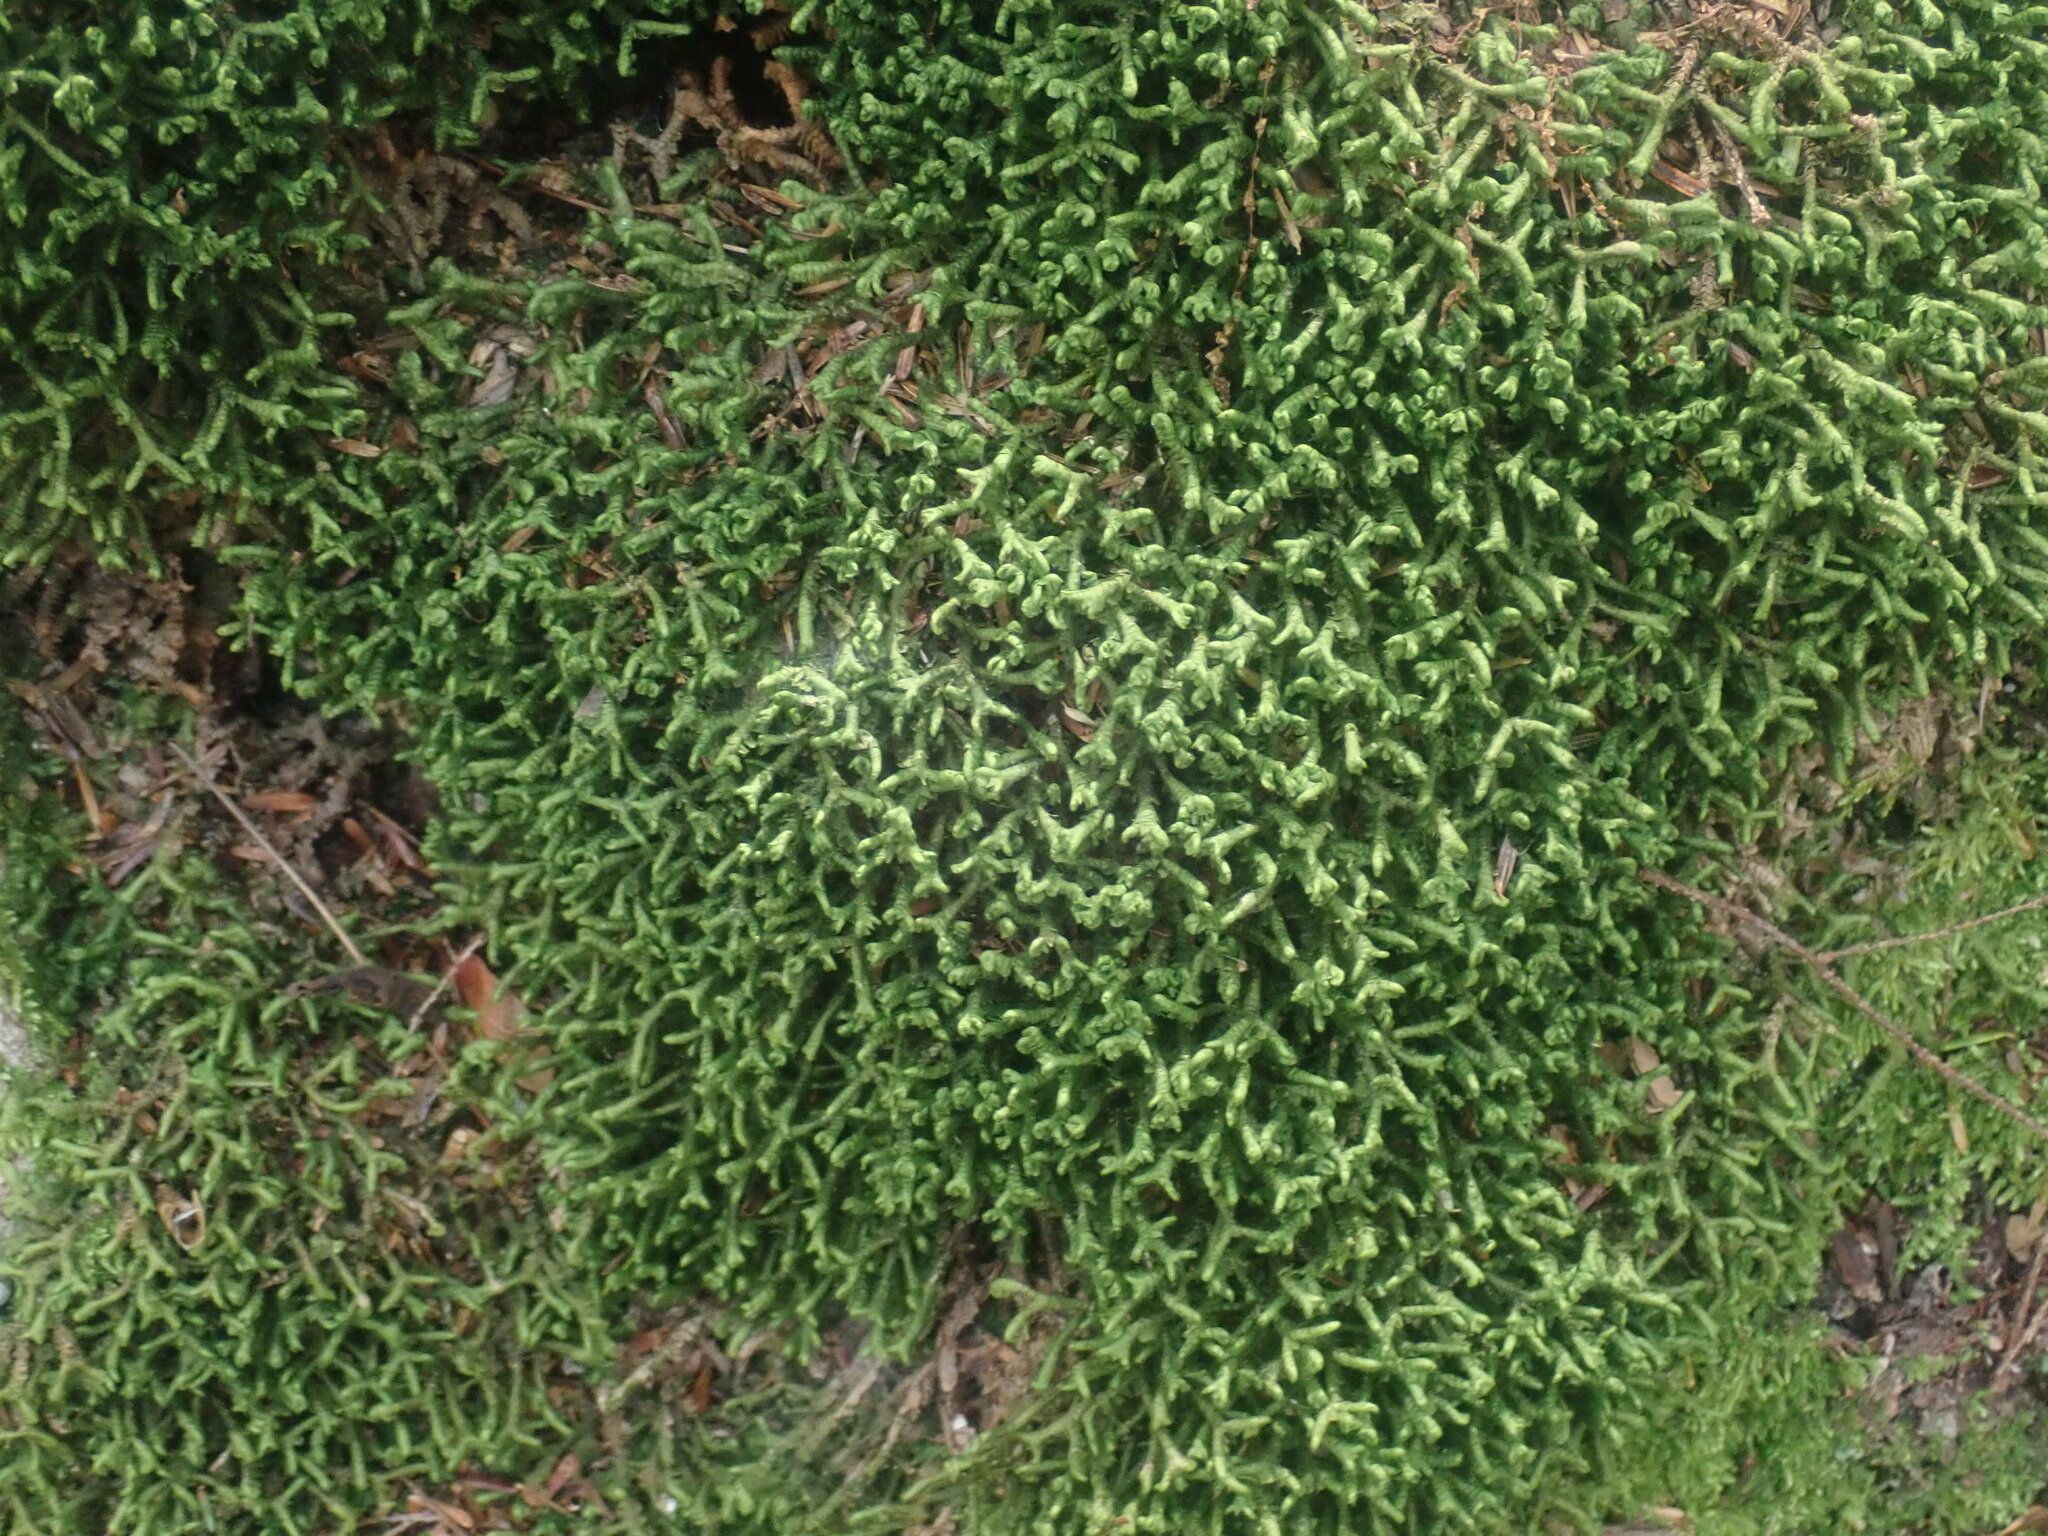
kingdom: Plantae
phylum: Marchantiophyta
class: Jungermanniopsida
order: Jungermanniales
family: Lepidoziaceae
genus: Bazzania
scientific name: Bazzania trilobata
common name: Three-lobed whipwort
